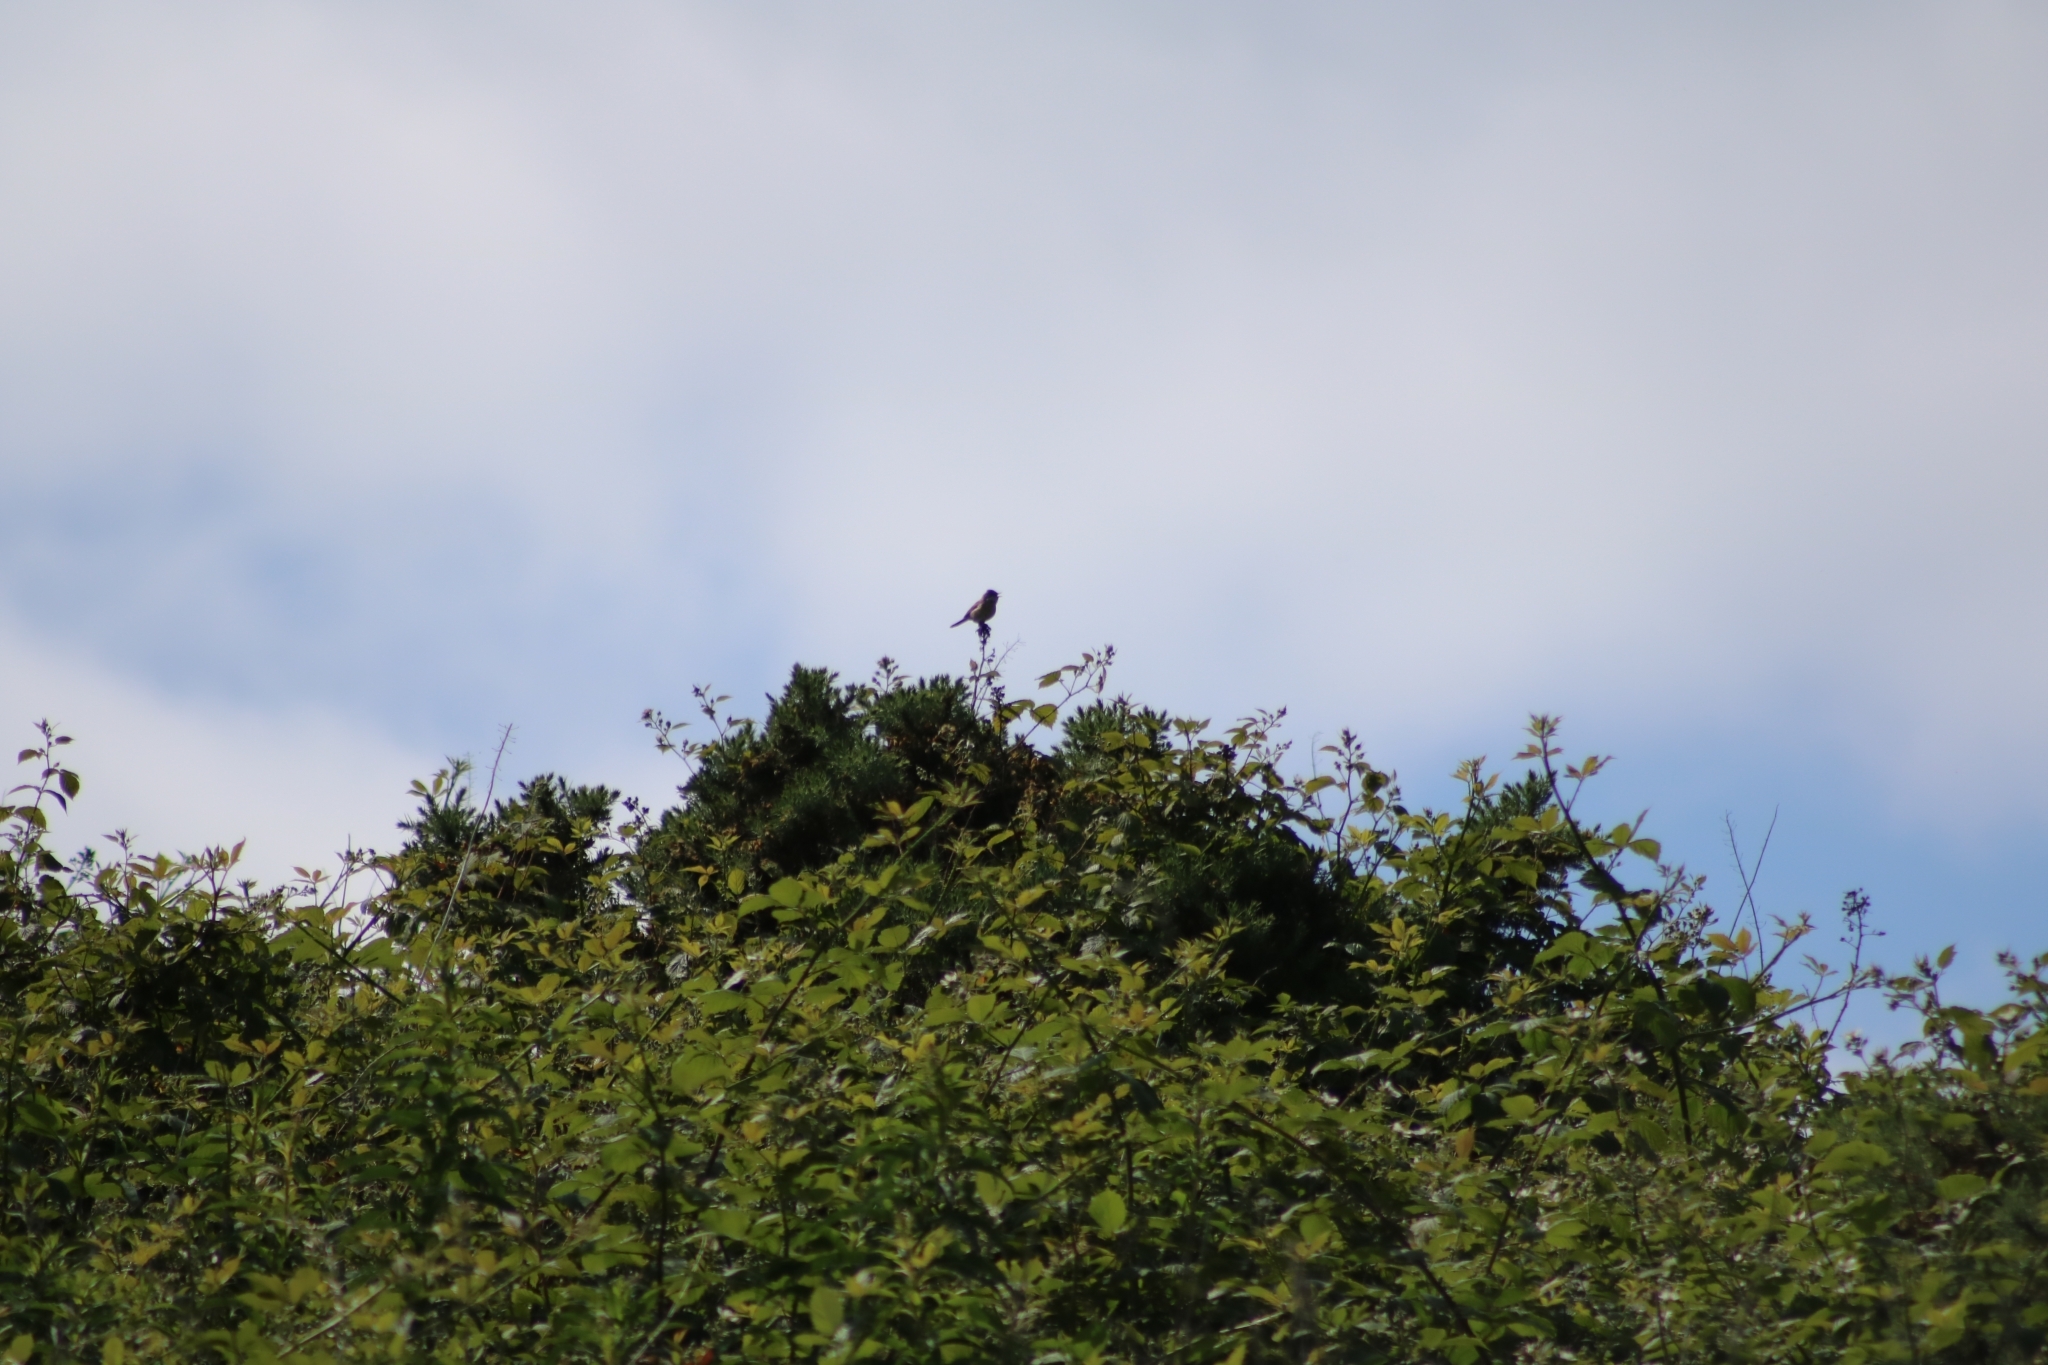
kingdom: Animalia
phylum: Chordata
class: Aves
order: Passeriformes
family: Sylviidae
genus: Sylvia
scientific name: Sylvia communis
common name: Common whitethroat
